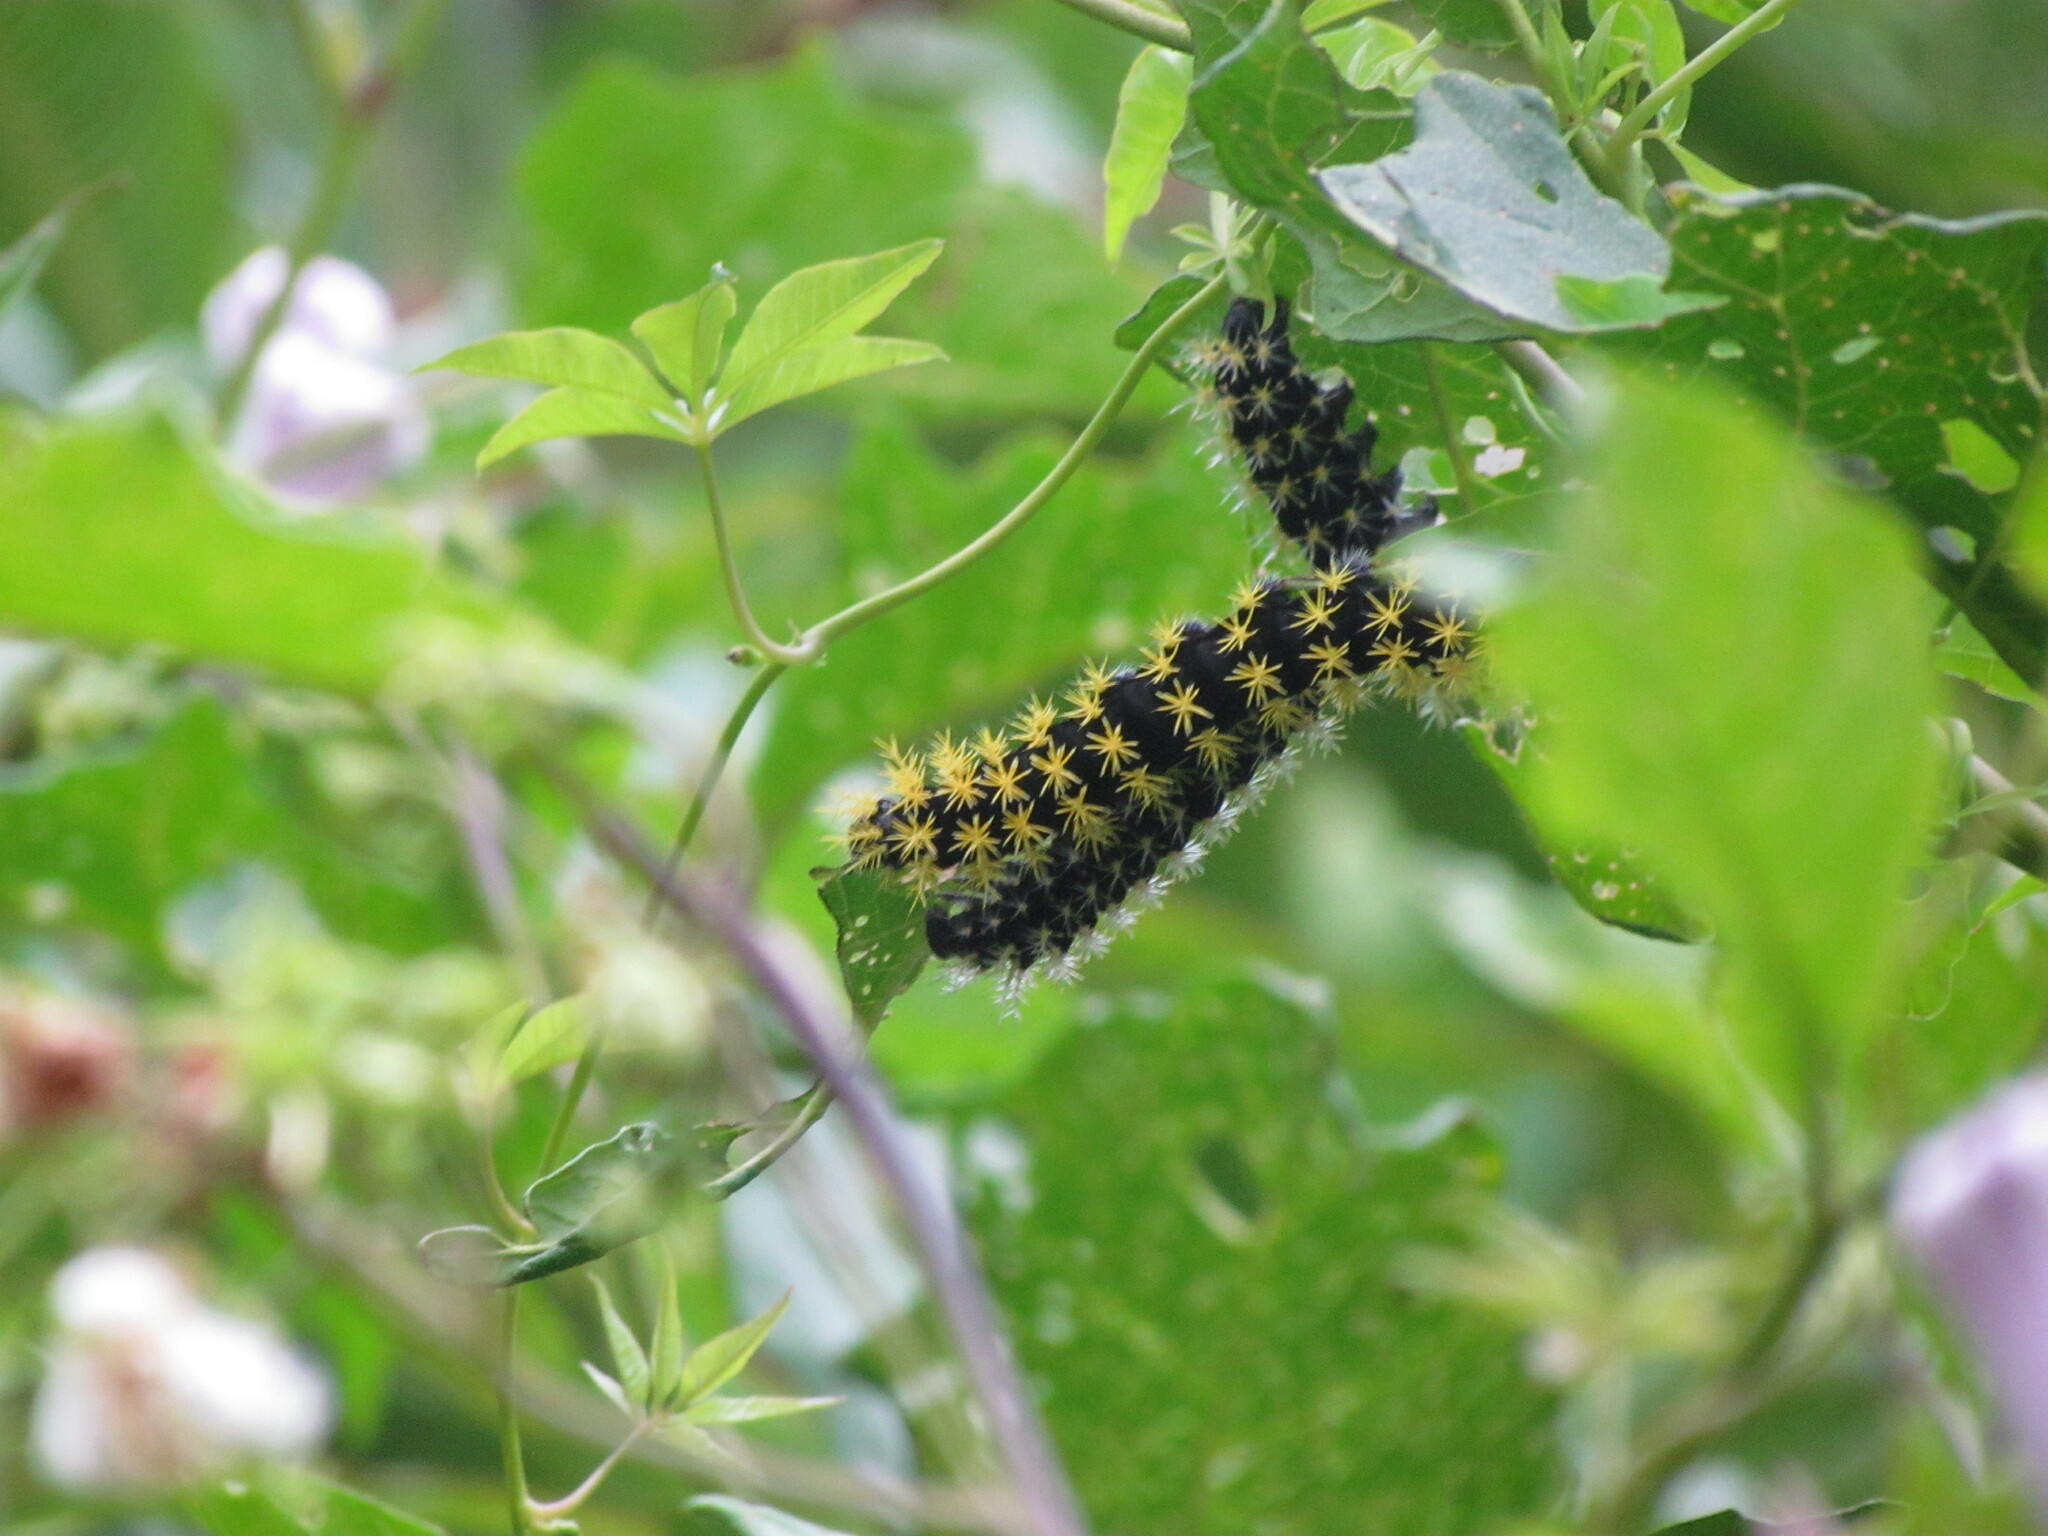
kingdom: Animalia
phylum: Arthropoda
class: Insecta
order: Lepidoptera
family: Saturniidae
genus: Leucanella
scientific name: Leucanella viridescens
